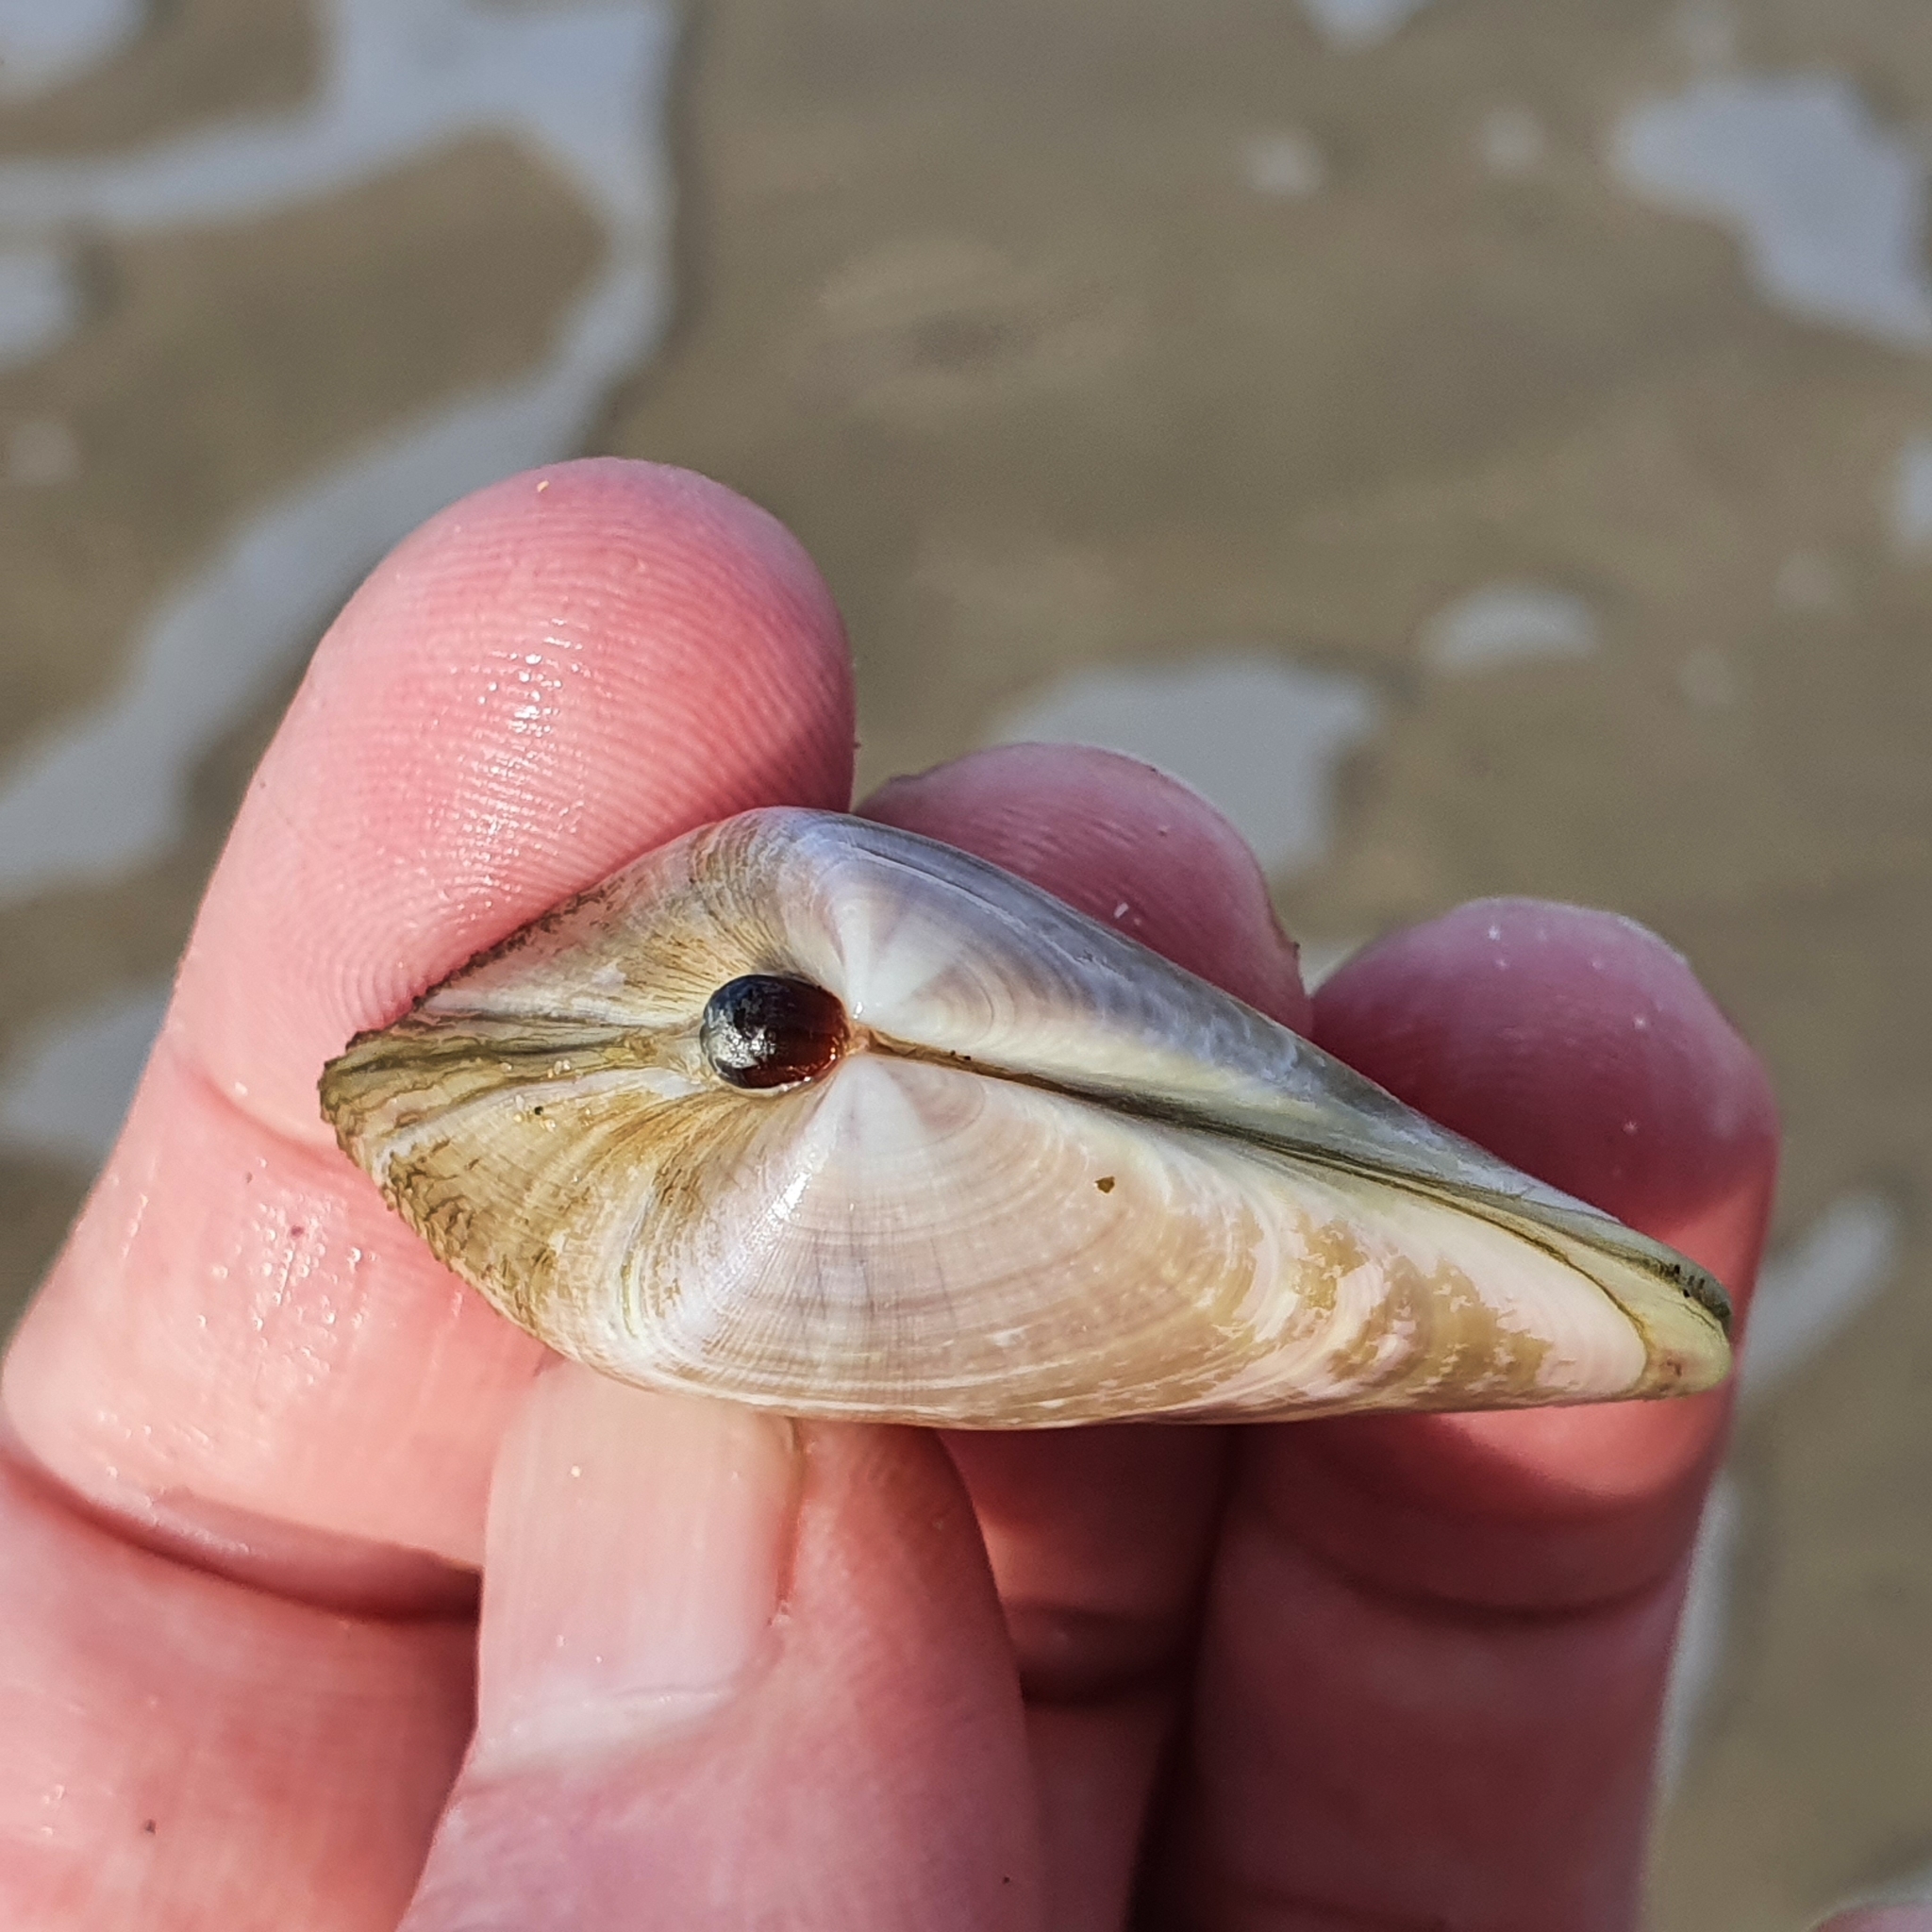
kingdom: Animalia
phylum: Mollusca
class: Bivalvia
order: Cardiida
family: Donacidae
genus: Latona
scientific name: Latona deltoides
